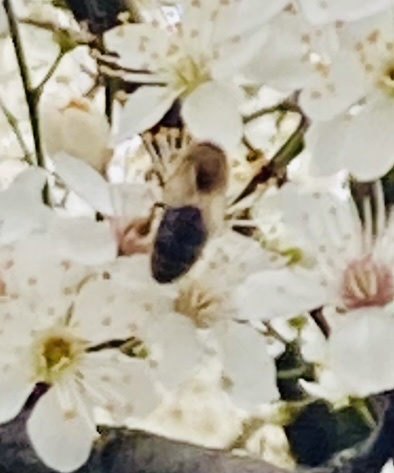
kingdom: Animalia
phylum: Arthropoda
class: Insecta
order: Hymenoptera
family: Apidae
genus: Apis
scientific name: Apis mellifera
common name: Honey bee
